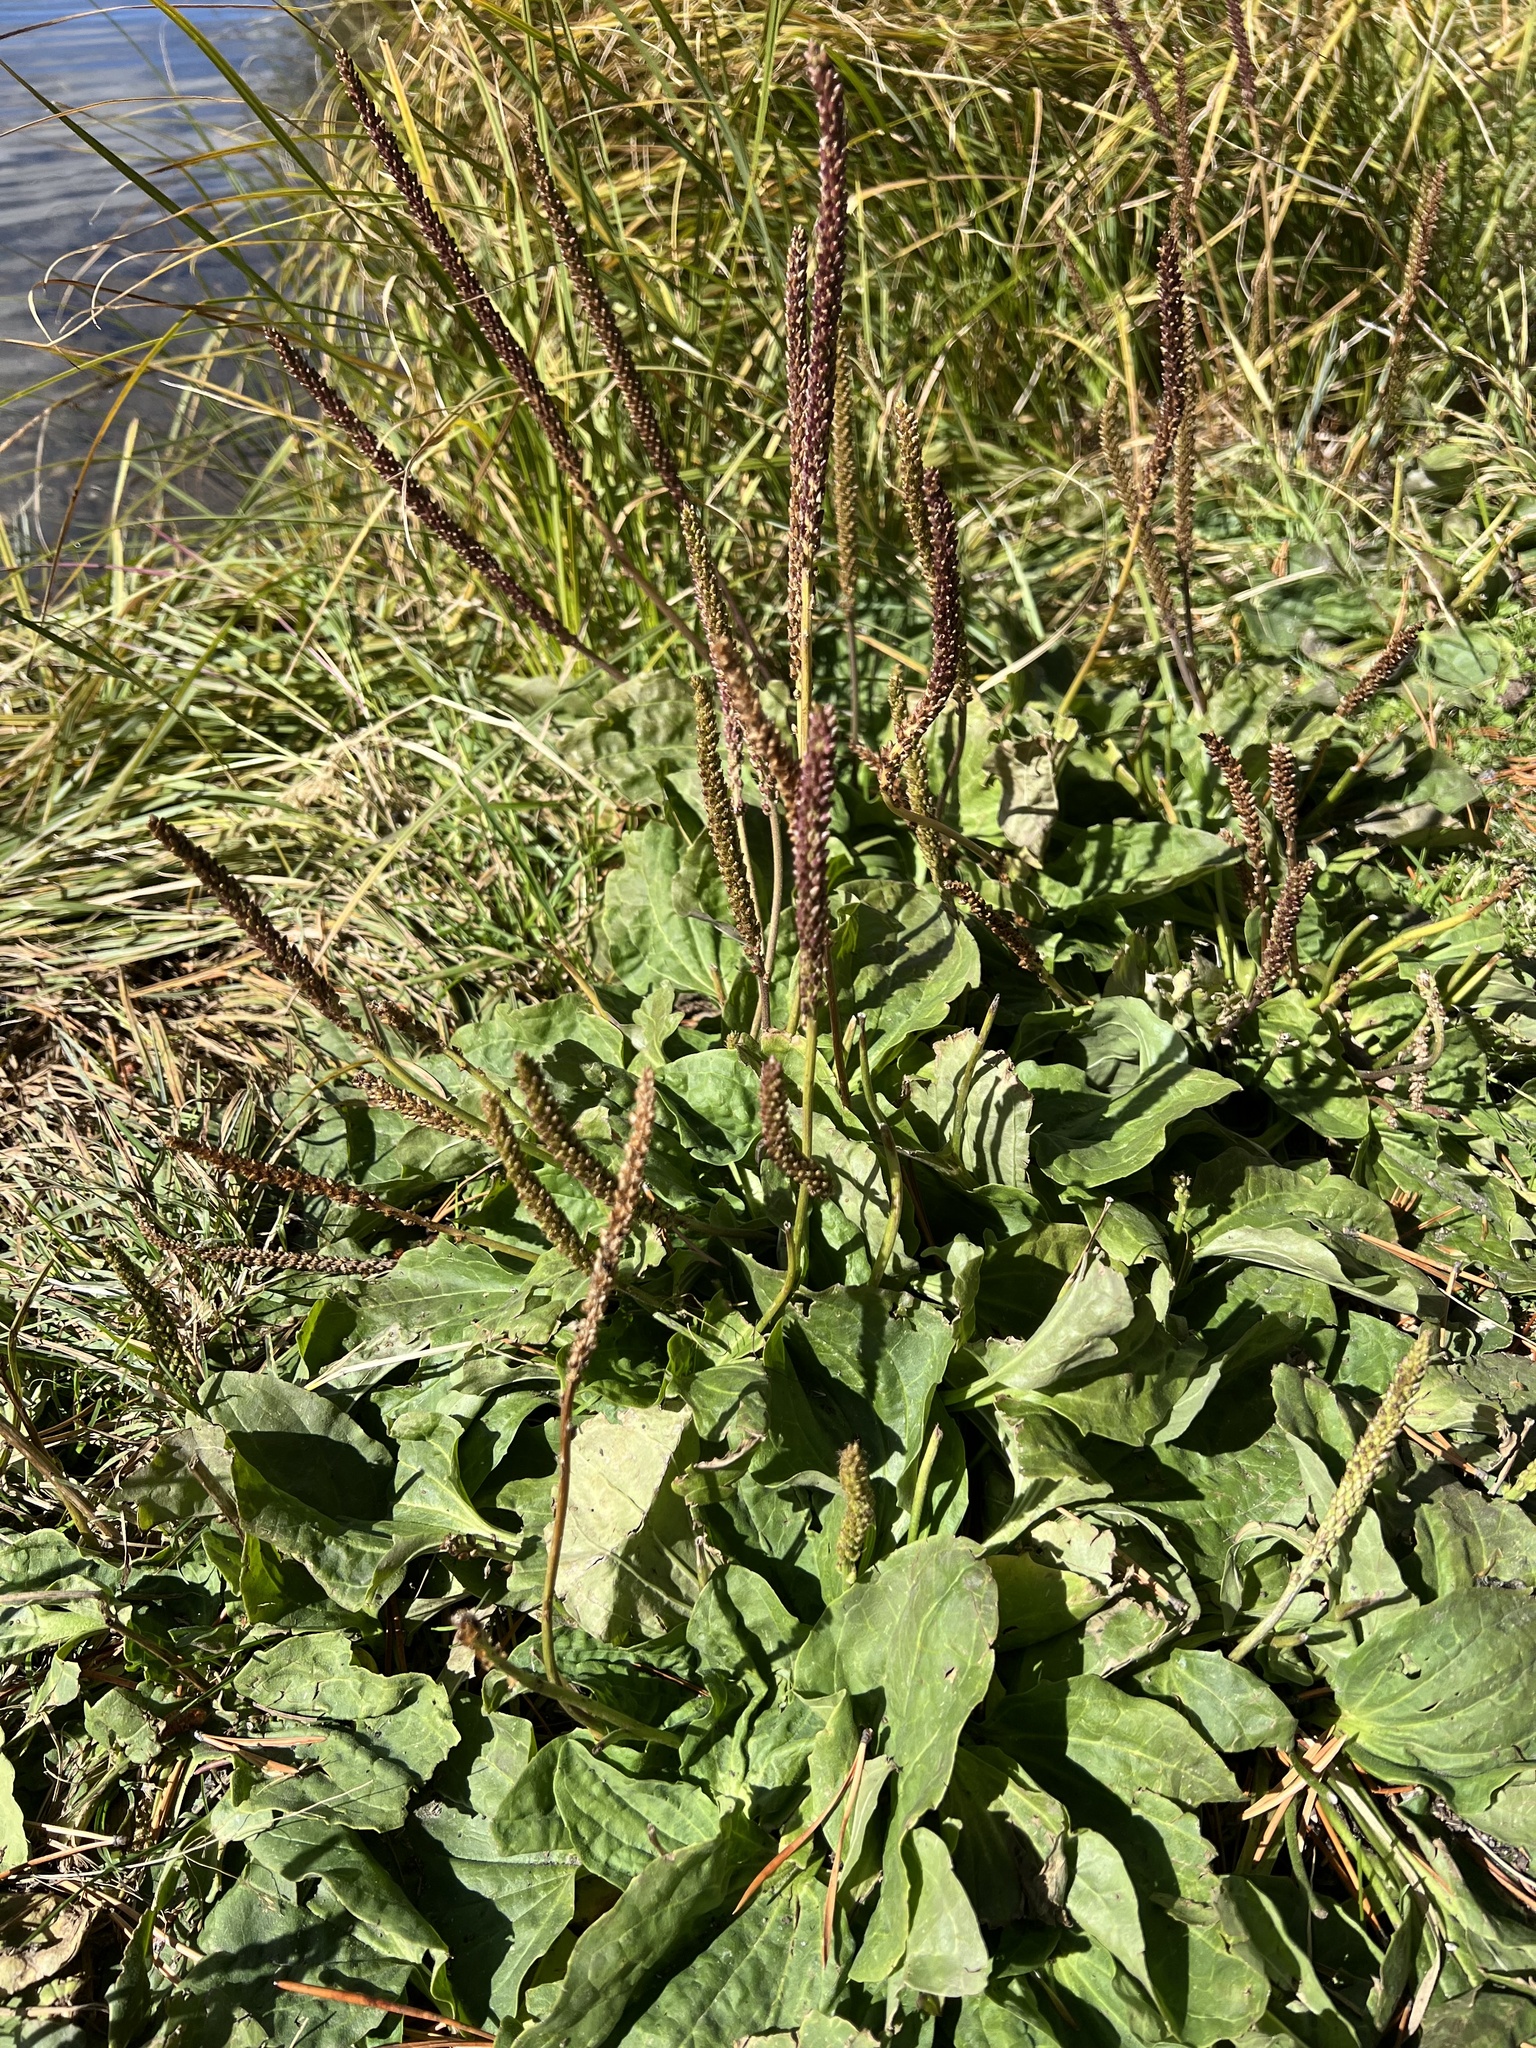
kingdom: Plantae
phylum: Tracheophyta
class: Magnoliopsida
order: Lamiales
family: Plantaginaceae
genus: Plantago
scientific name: Plantago major
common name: Common plantain
